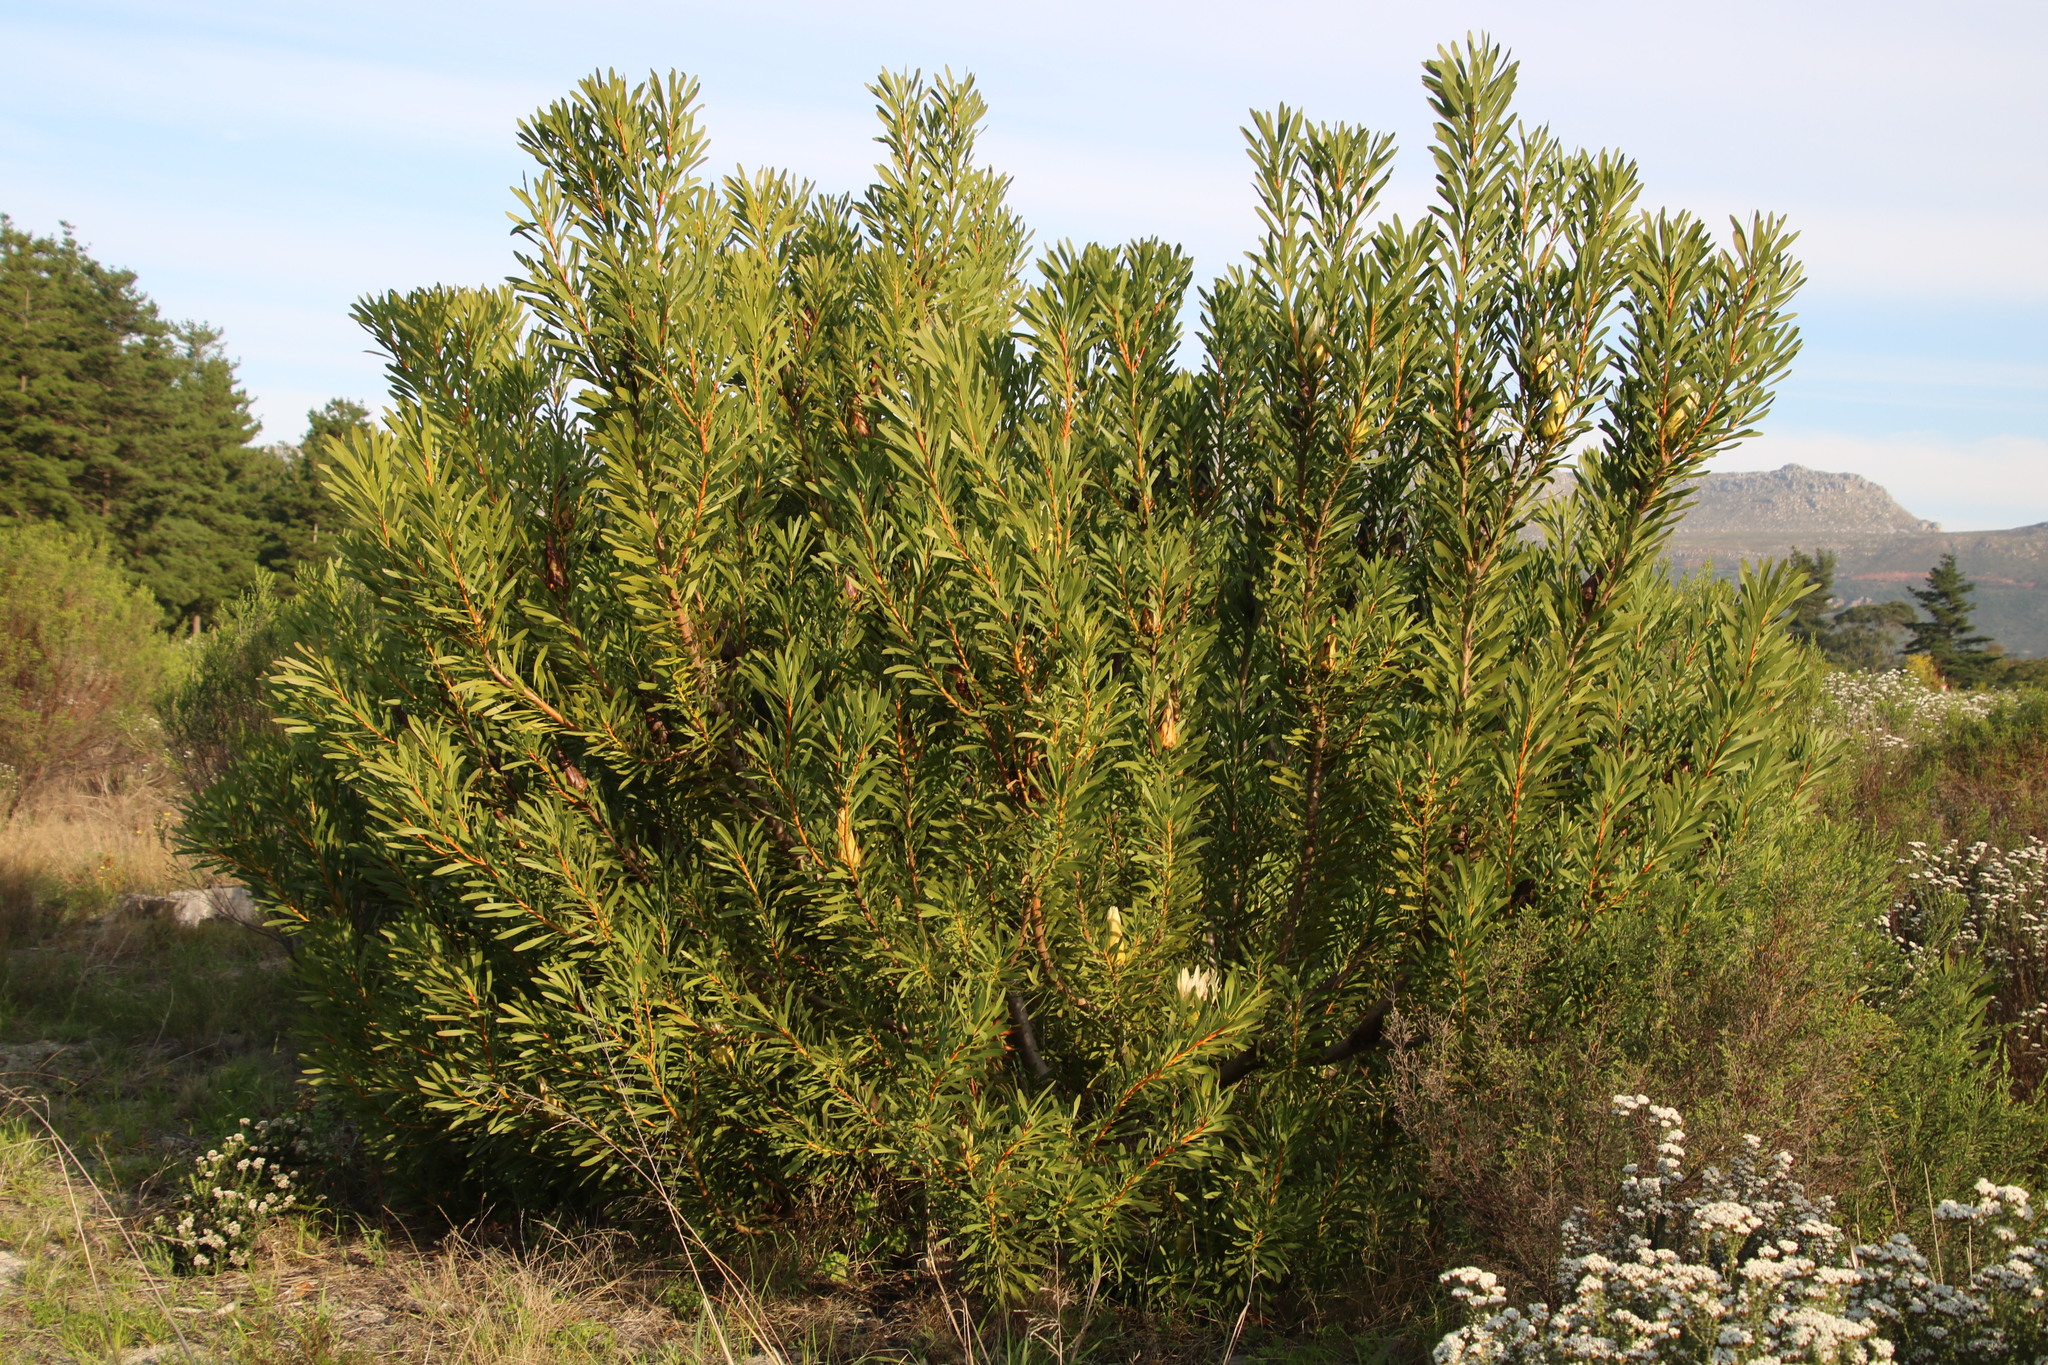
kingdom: Plantae
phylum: Tracheophyta
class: Magnoliopsida
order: Proteales
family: Proteaceae
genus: Protea
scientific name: Protea repens
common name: Sugarbush
